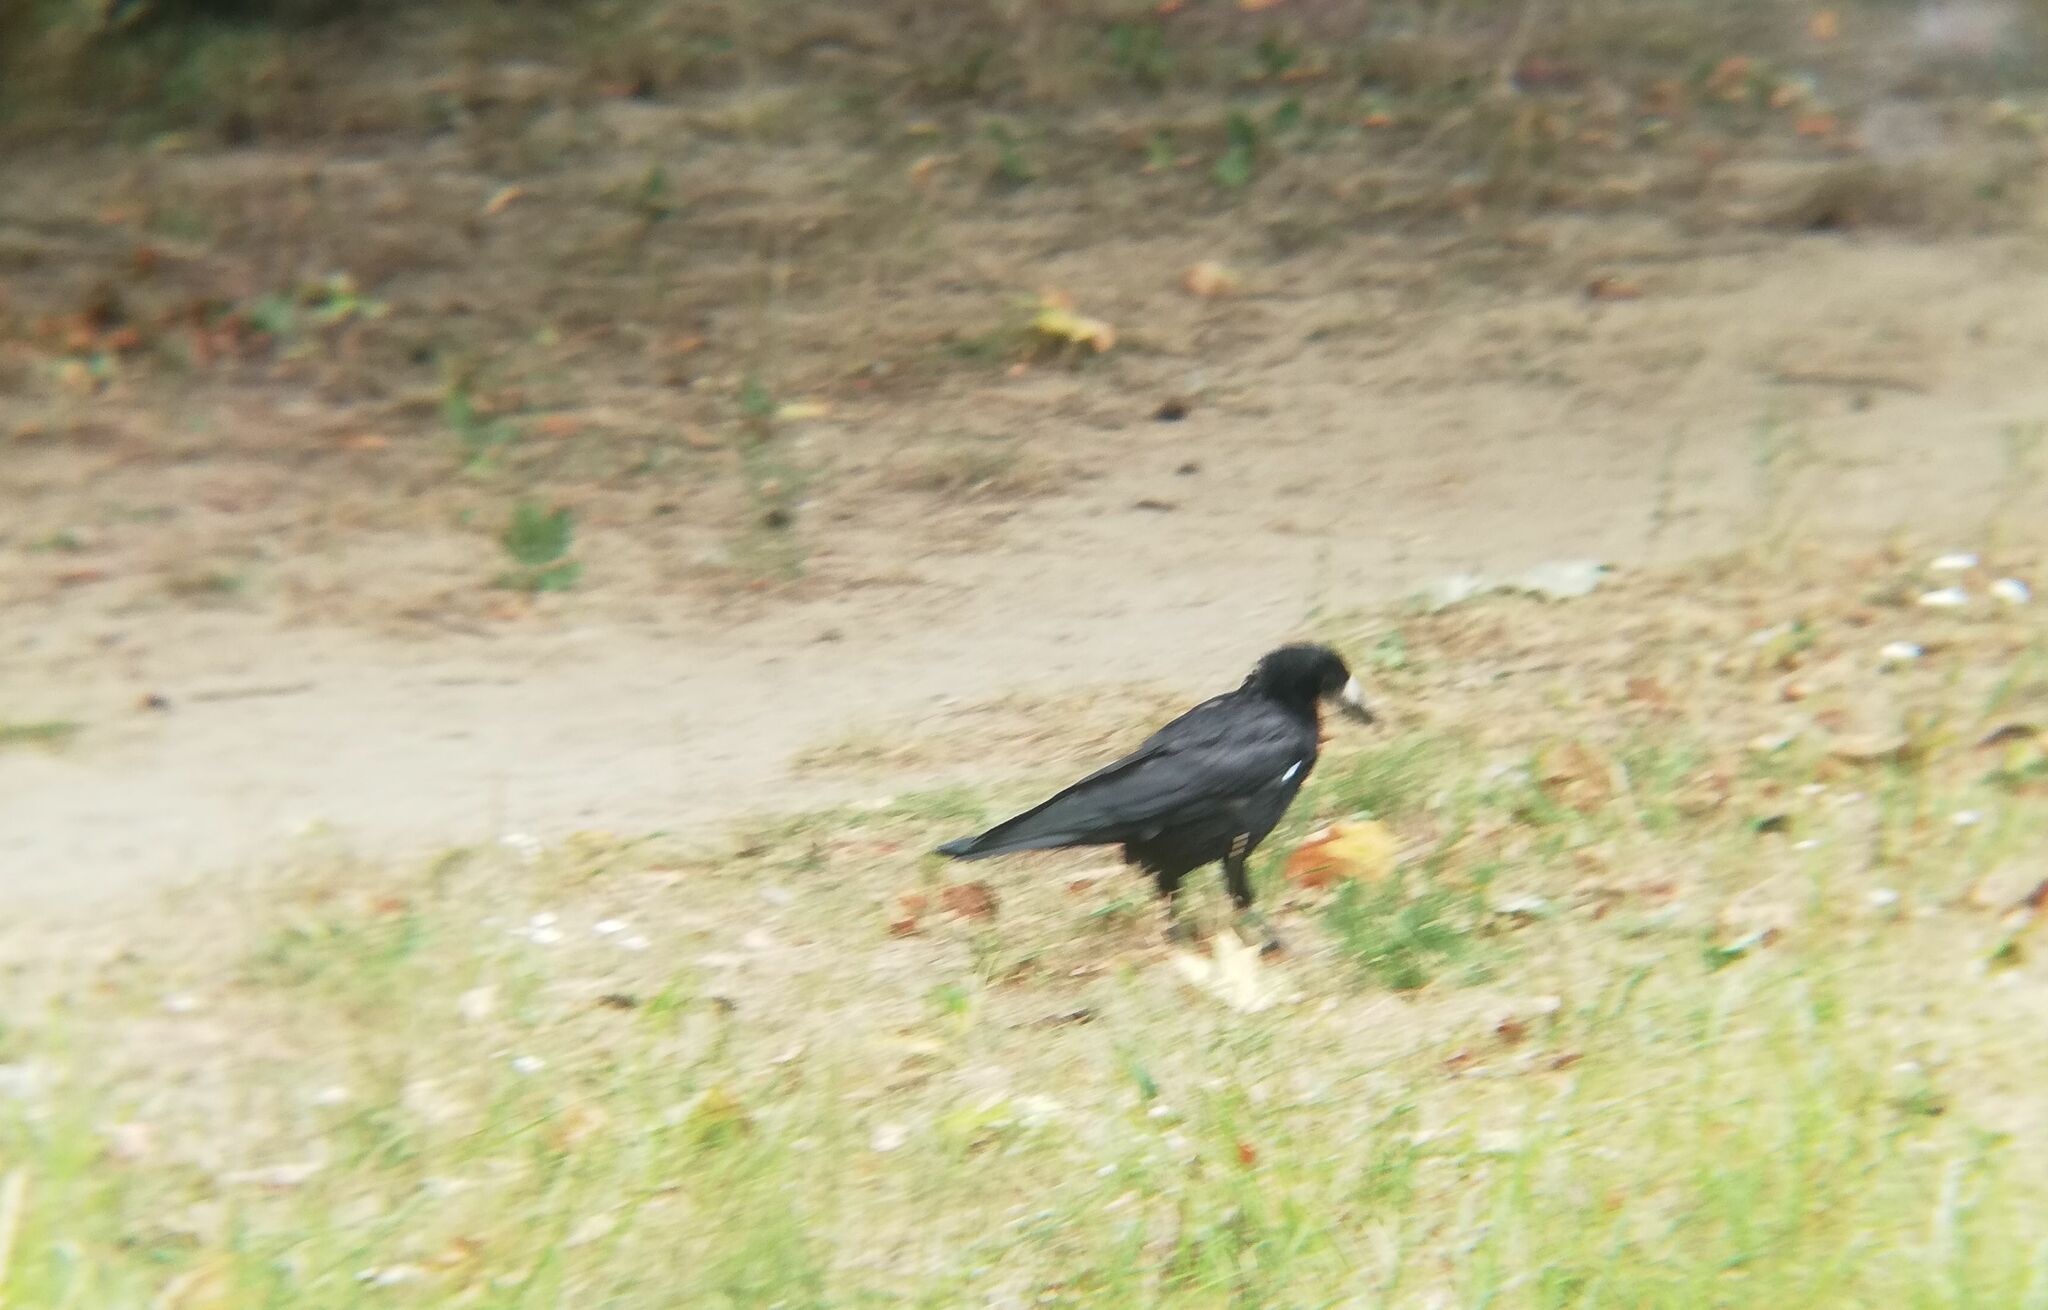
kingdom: Animalia
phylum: Chordata
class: Aves
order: Passeriformes
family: Corvidae
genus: Corvus
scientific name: Corvus frugilegus
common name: Rook
